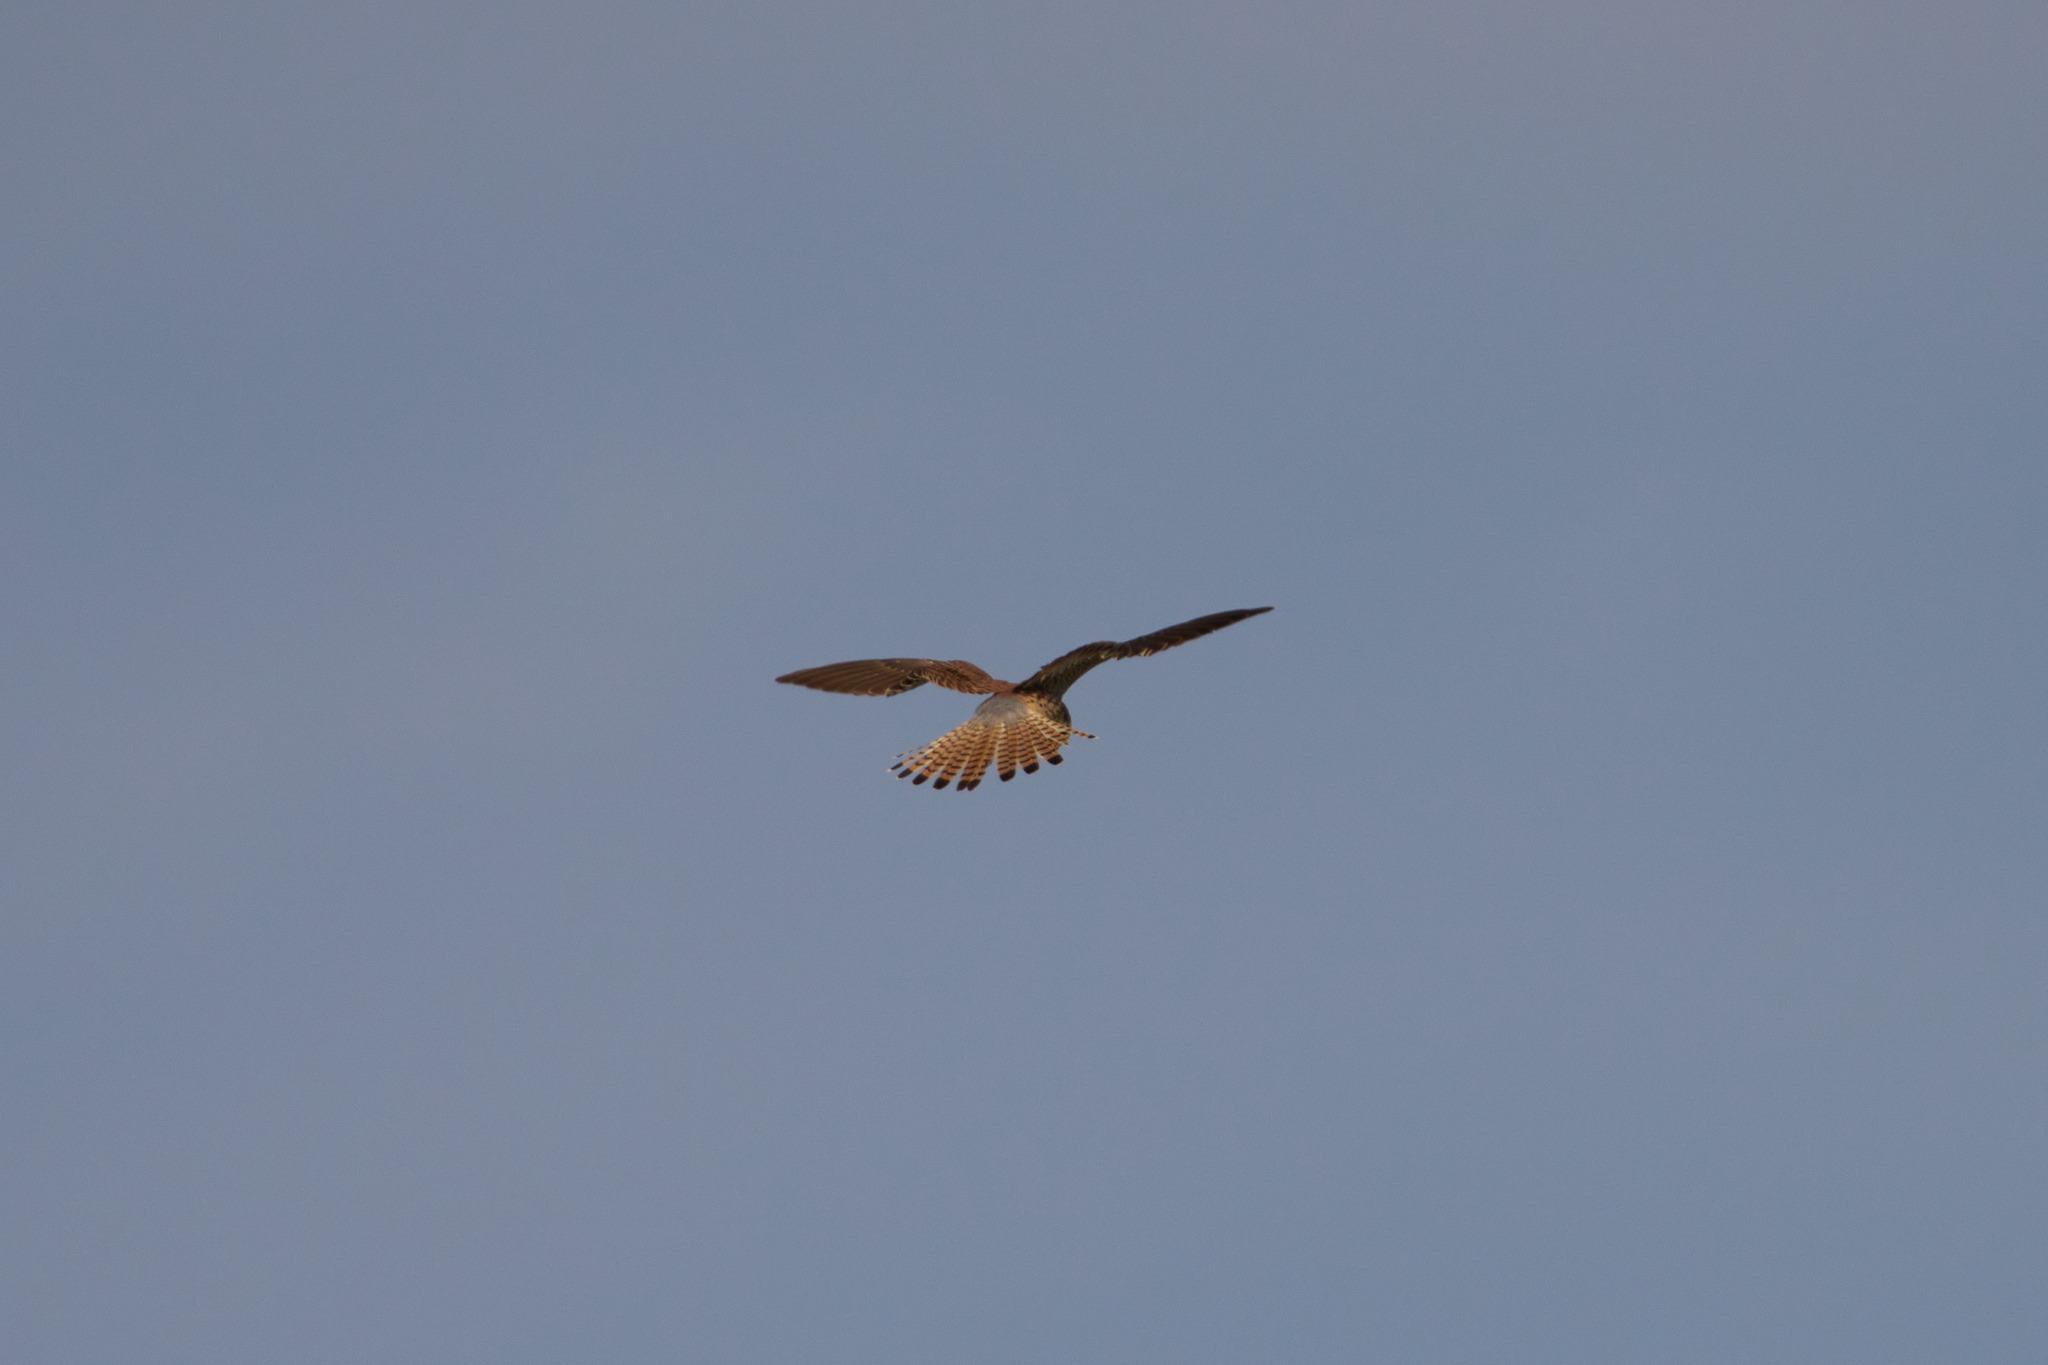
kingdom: Animalia
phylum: Chordata
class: Aves
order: Falconiformes
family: Falconidae
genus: Falco
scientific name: Falco tinnunculus
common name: Common kestrel
